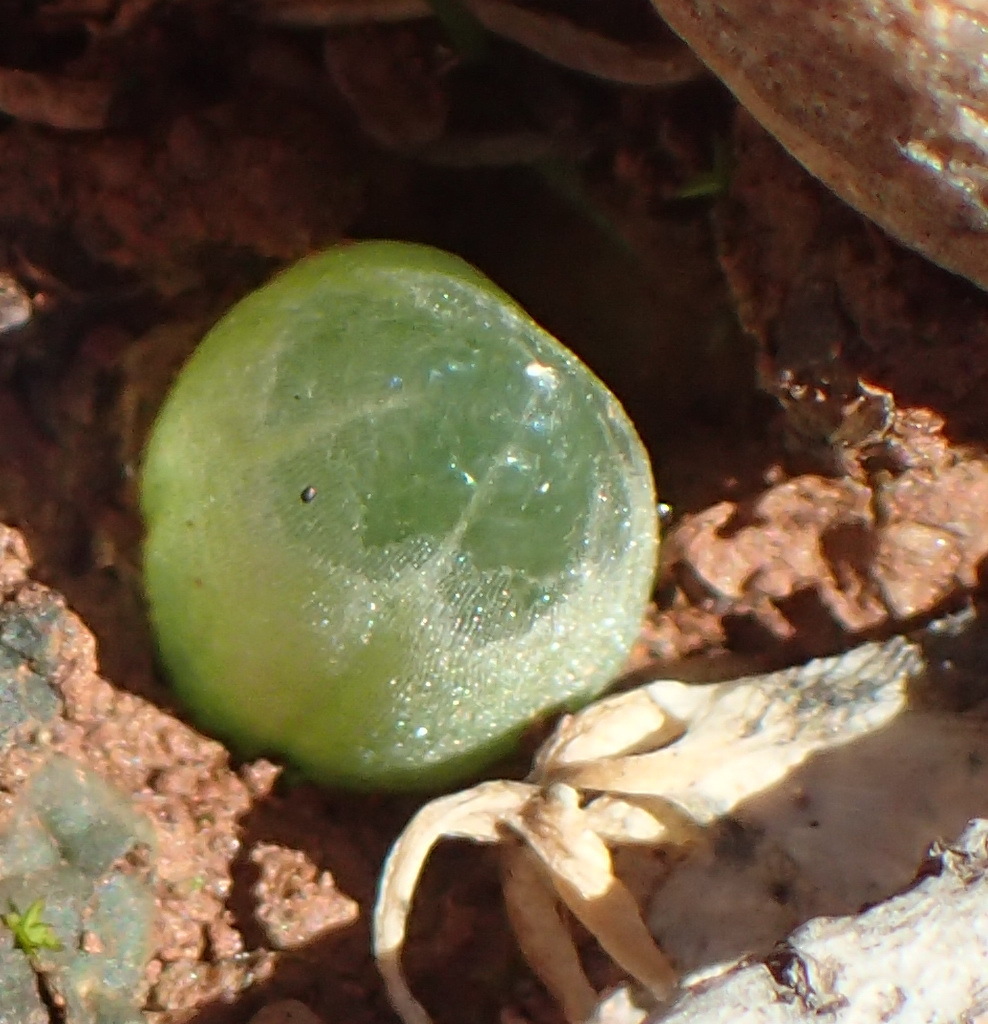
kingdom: Plantae
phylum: Tracheophyta
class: Liliopsida
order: Asparagales
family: Asphodelaceae
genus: Bulbine
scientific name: Bulbine mesembryanthoides
